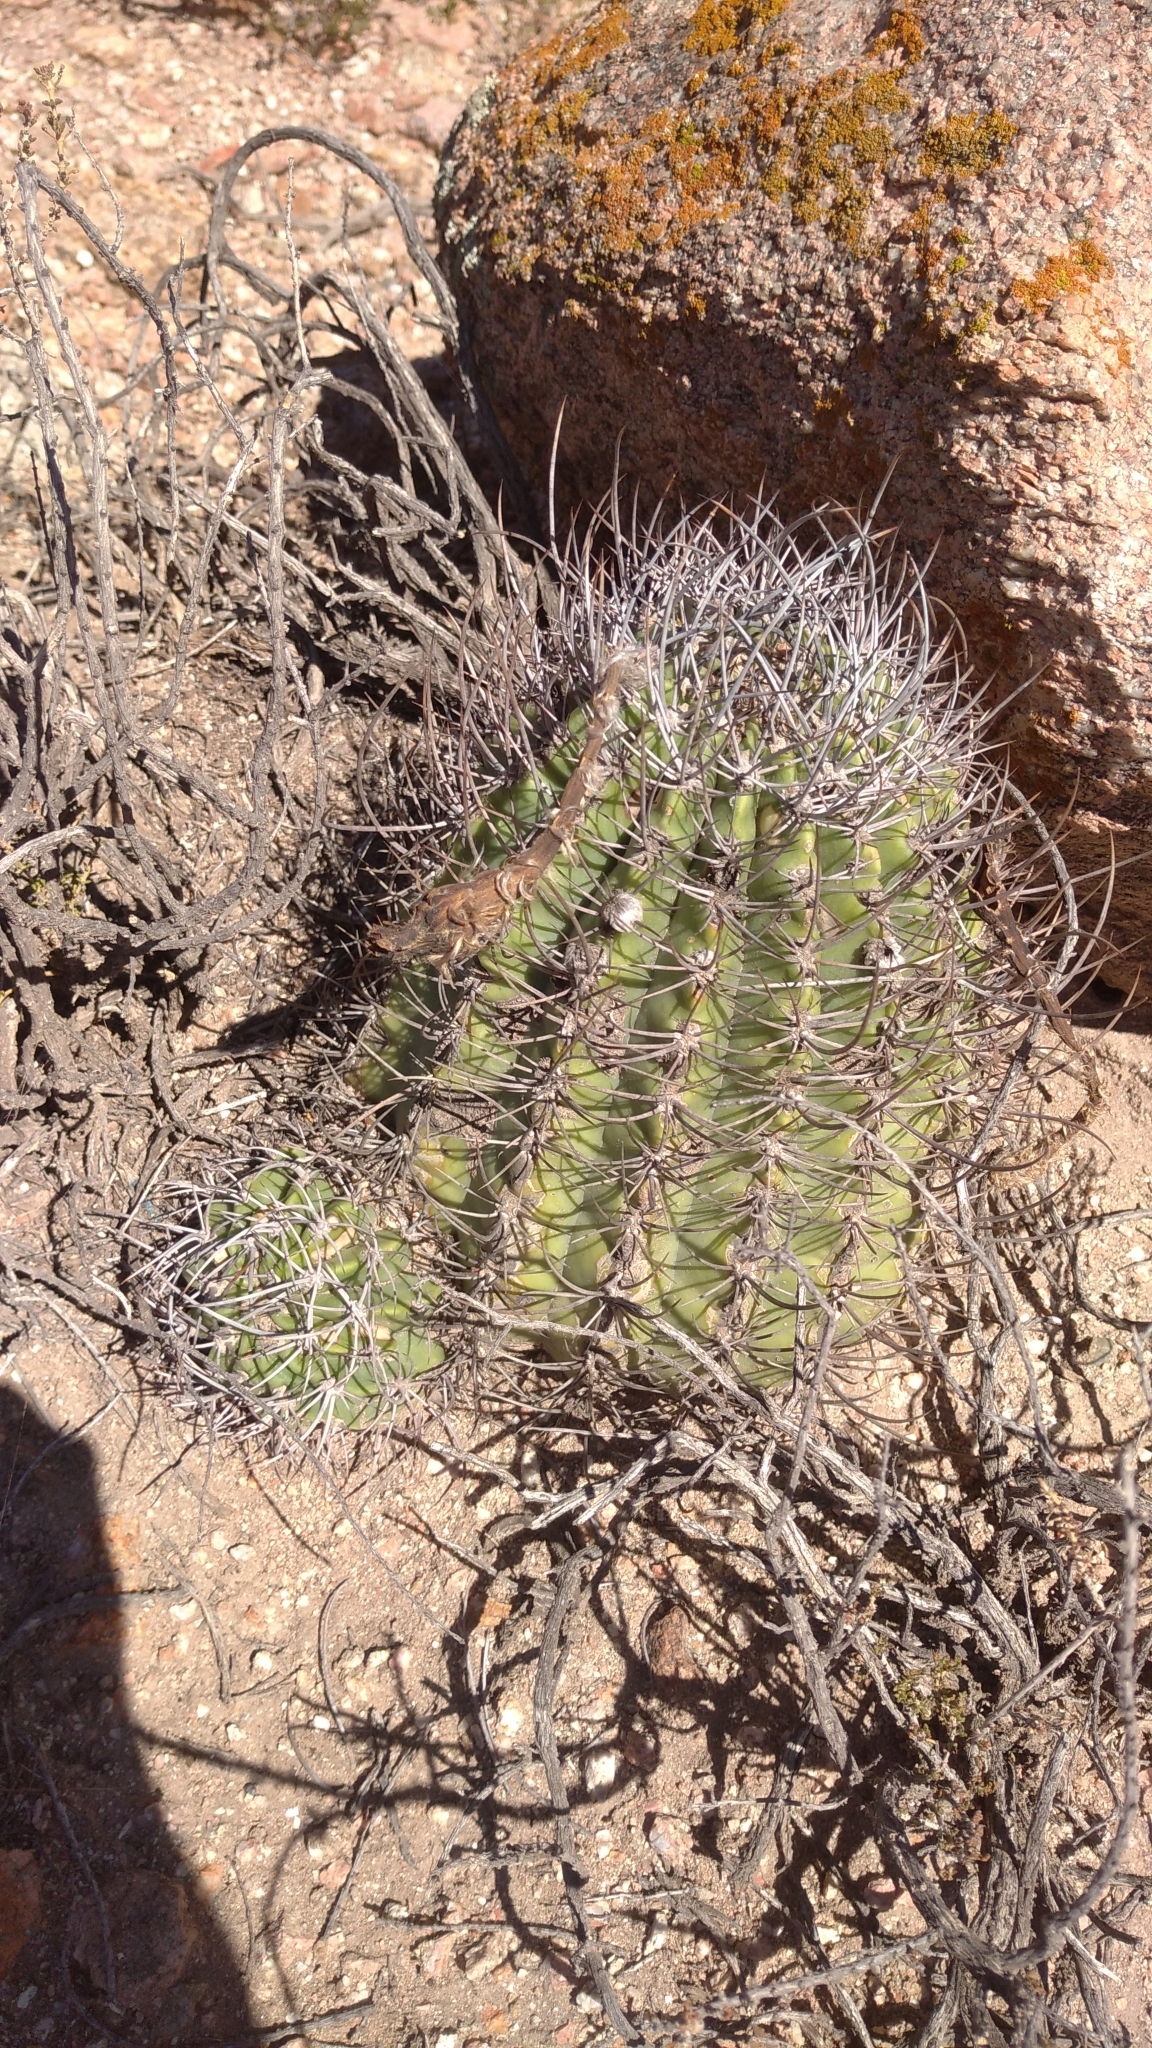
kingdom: Plantae
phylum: Tracheophyta
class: Magnoliopsida
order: Caryophyllales
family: Cactaceae
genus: Acanthocalycium
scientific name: Acanthocalycium leucanthum
